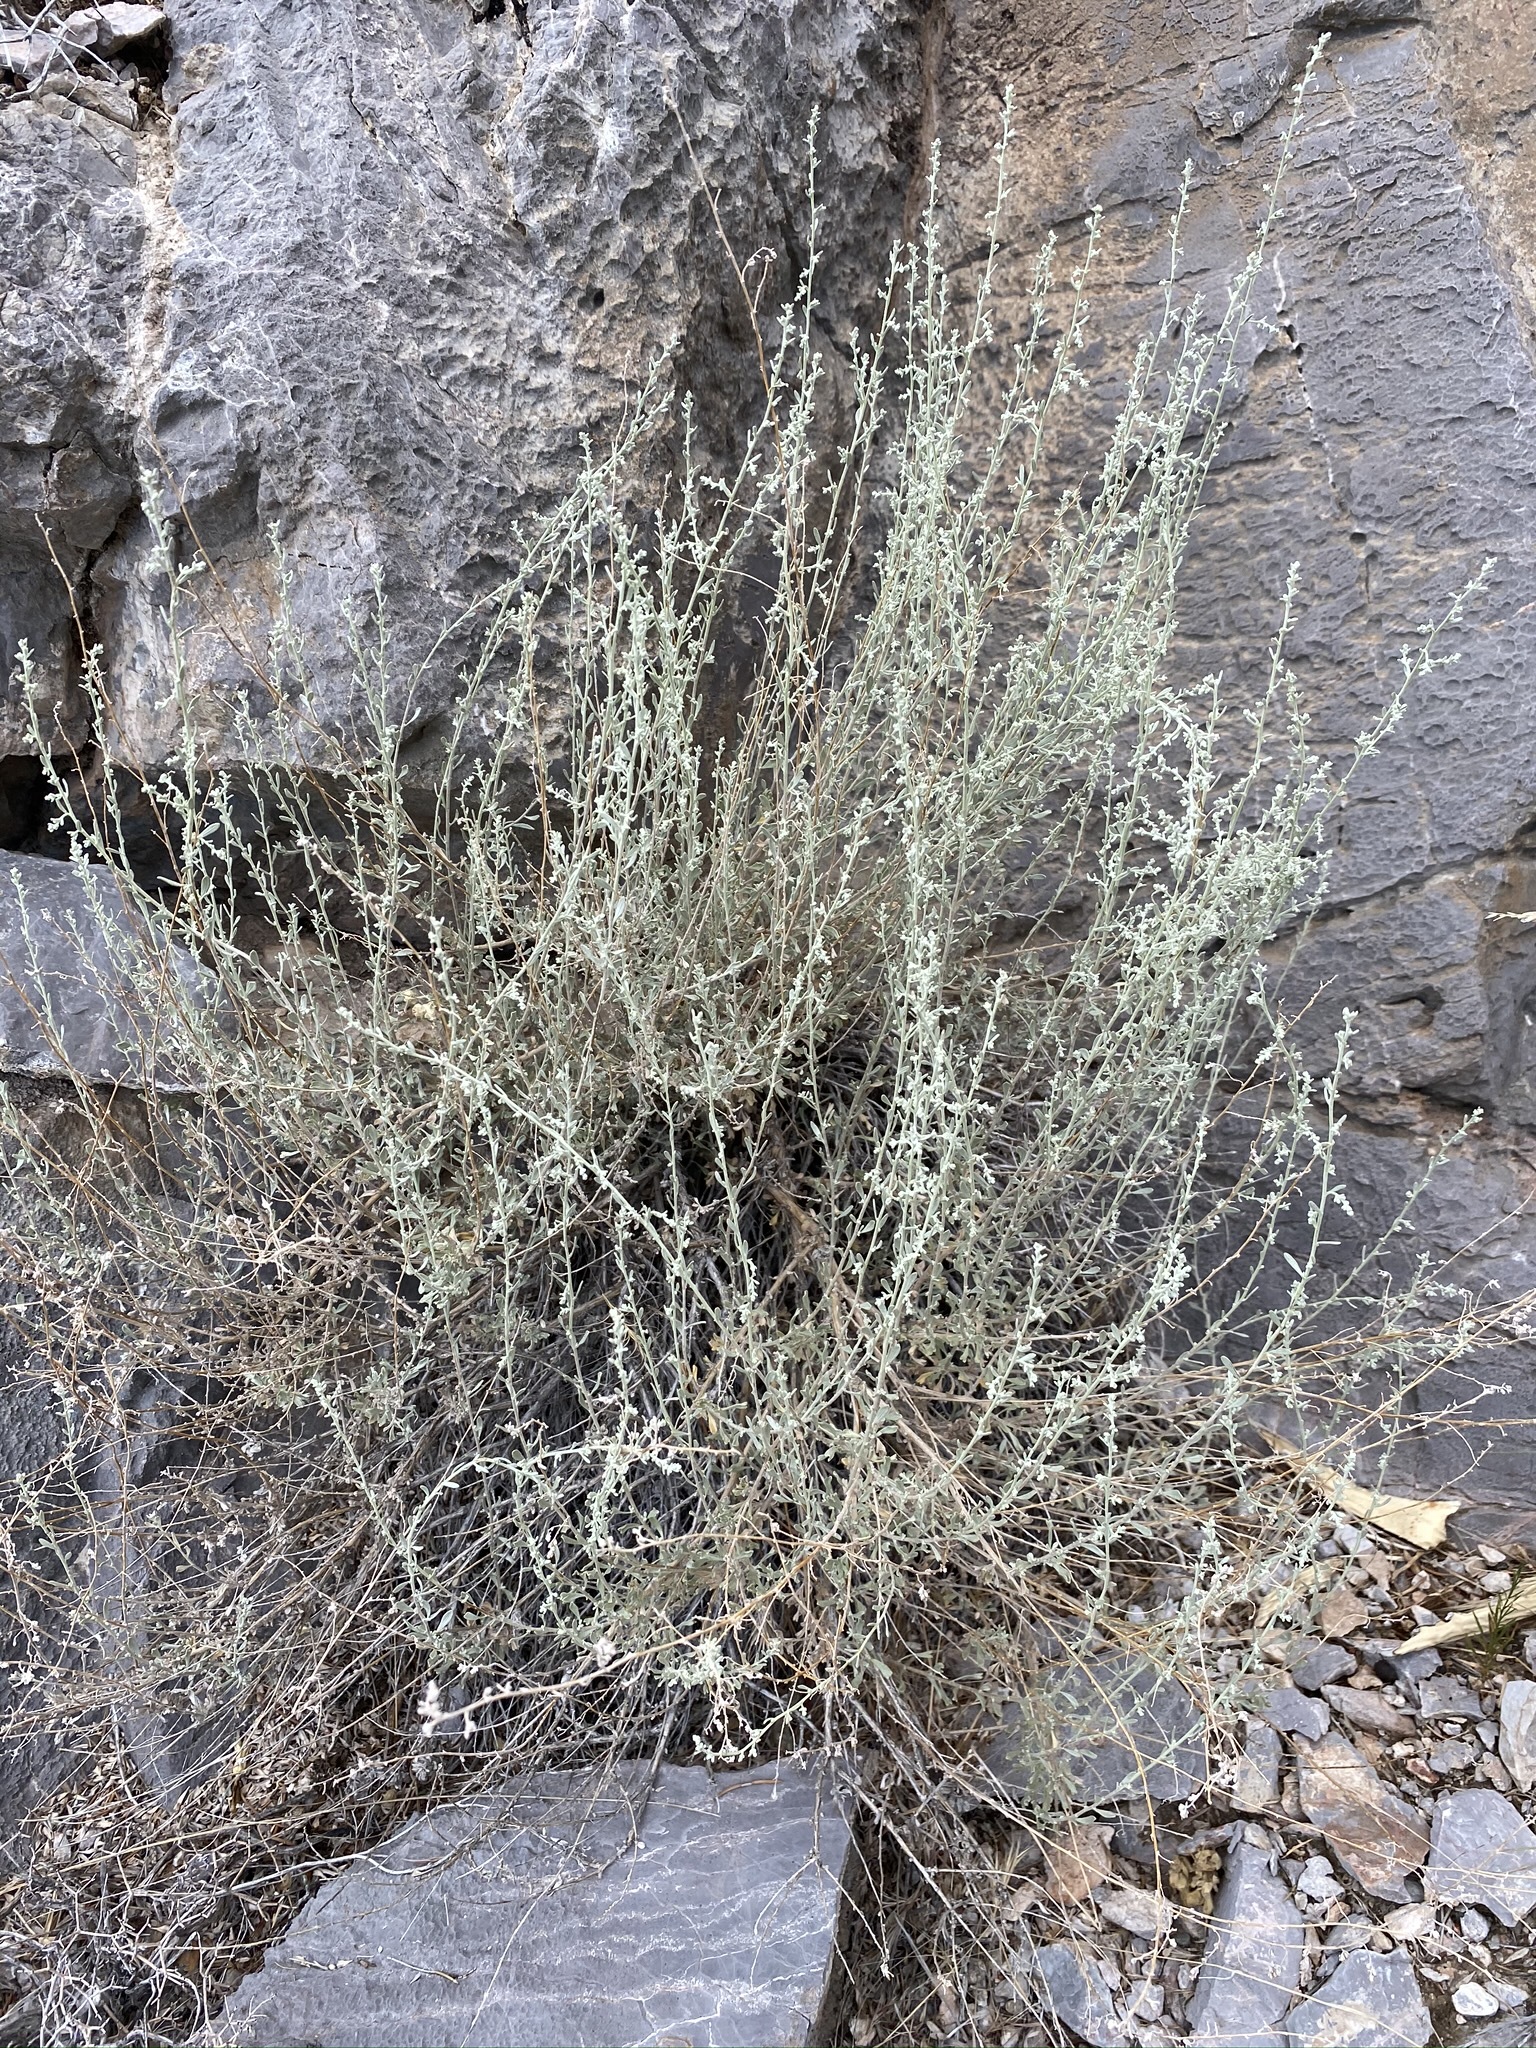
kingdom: Plantae
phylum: Tracheophyta
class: Magnoliopsida
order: Asterales
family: Asteraceae
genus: Artemisia
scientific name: Artemisia bigelovii
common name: Bigelow sagebrush
